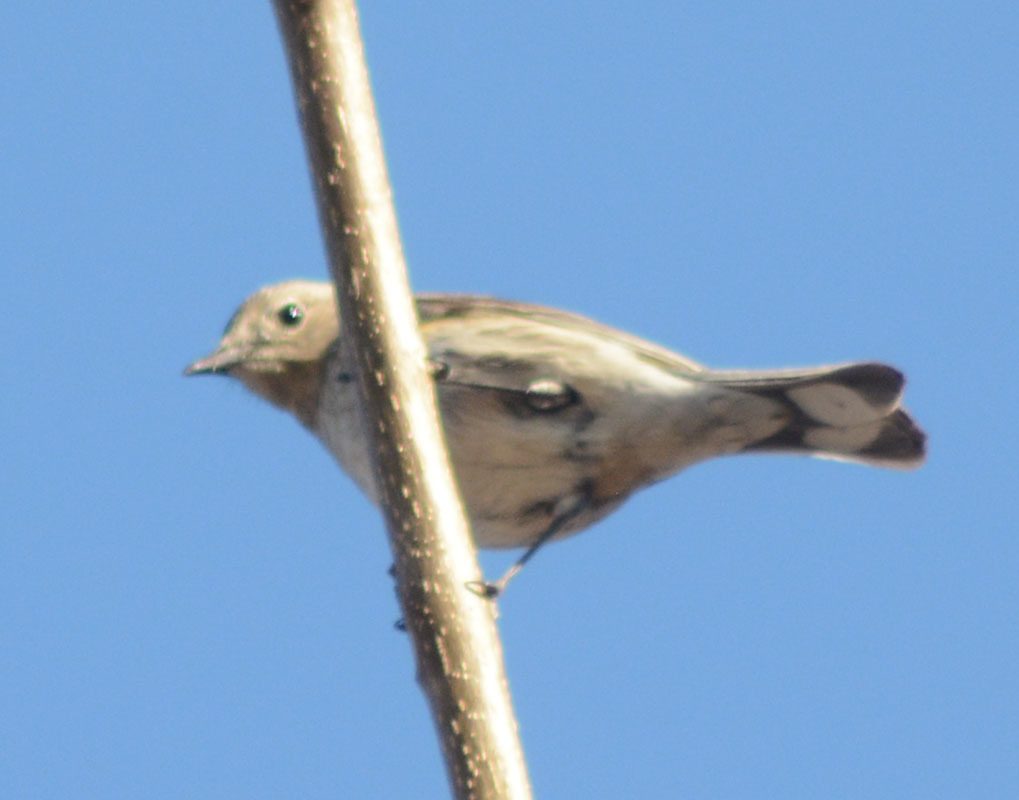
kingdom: Animalia
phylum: Chordata
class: Aves
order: Passeriformes
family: Parulidae
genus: Setophaga
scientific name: Setophaga coronata
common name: Myrtle warbler
